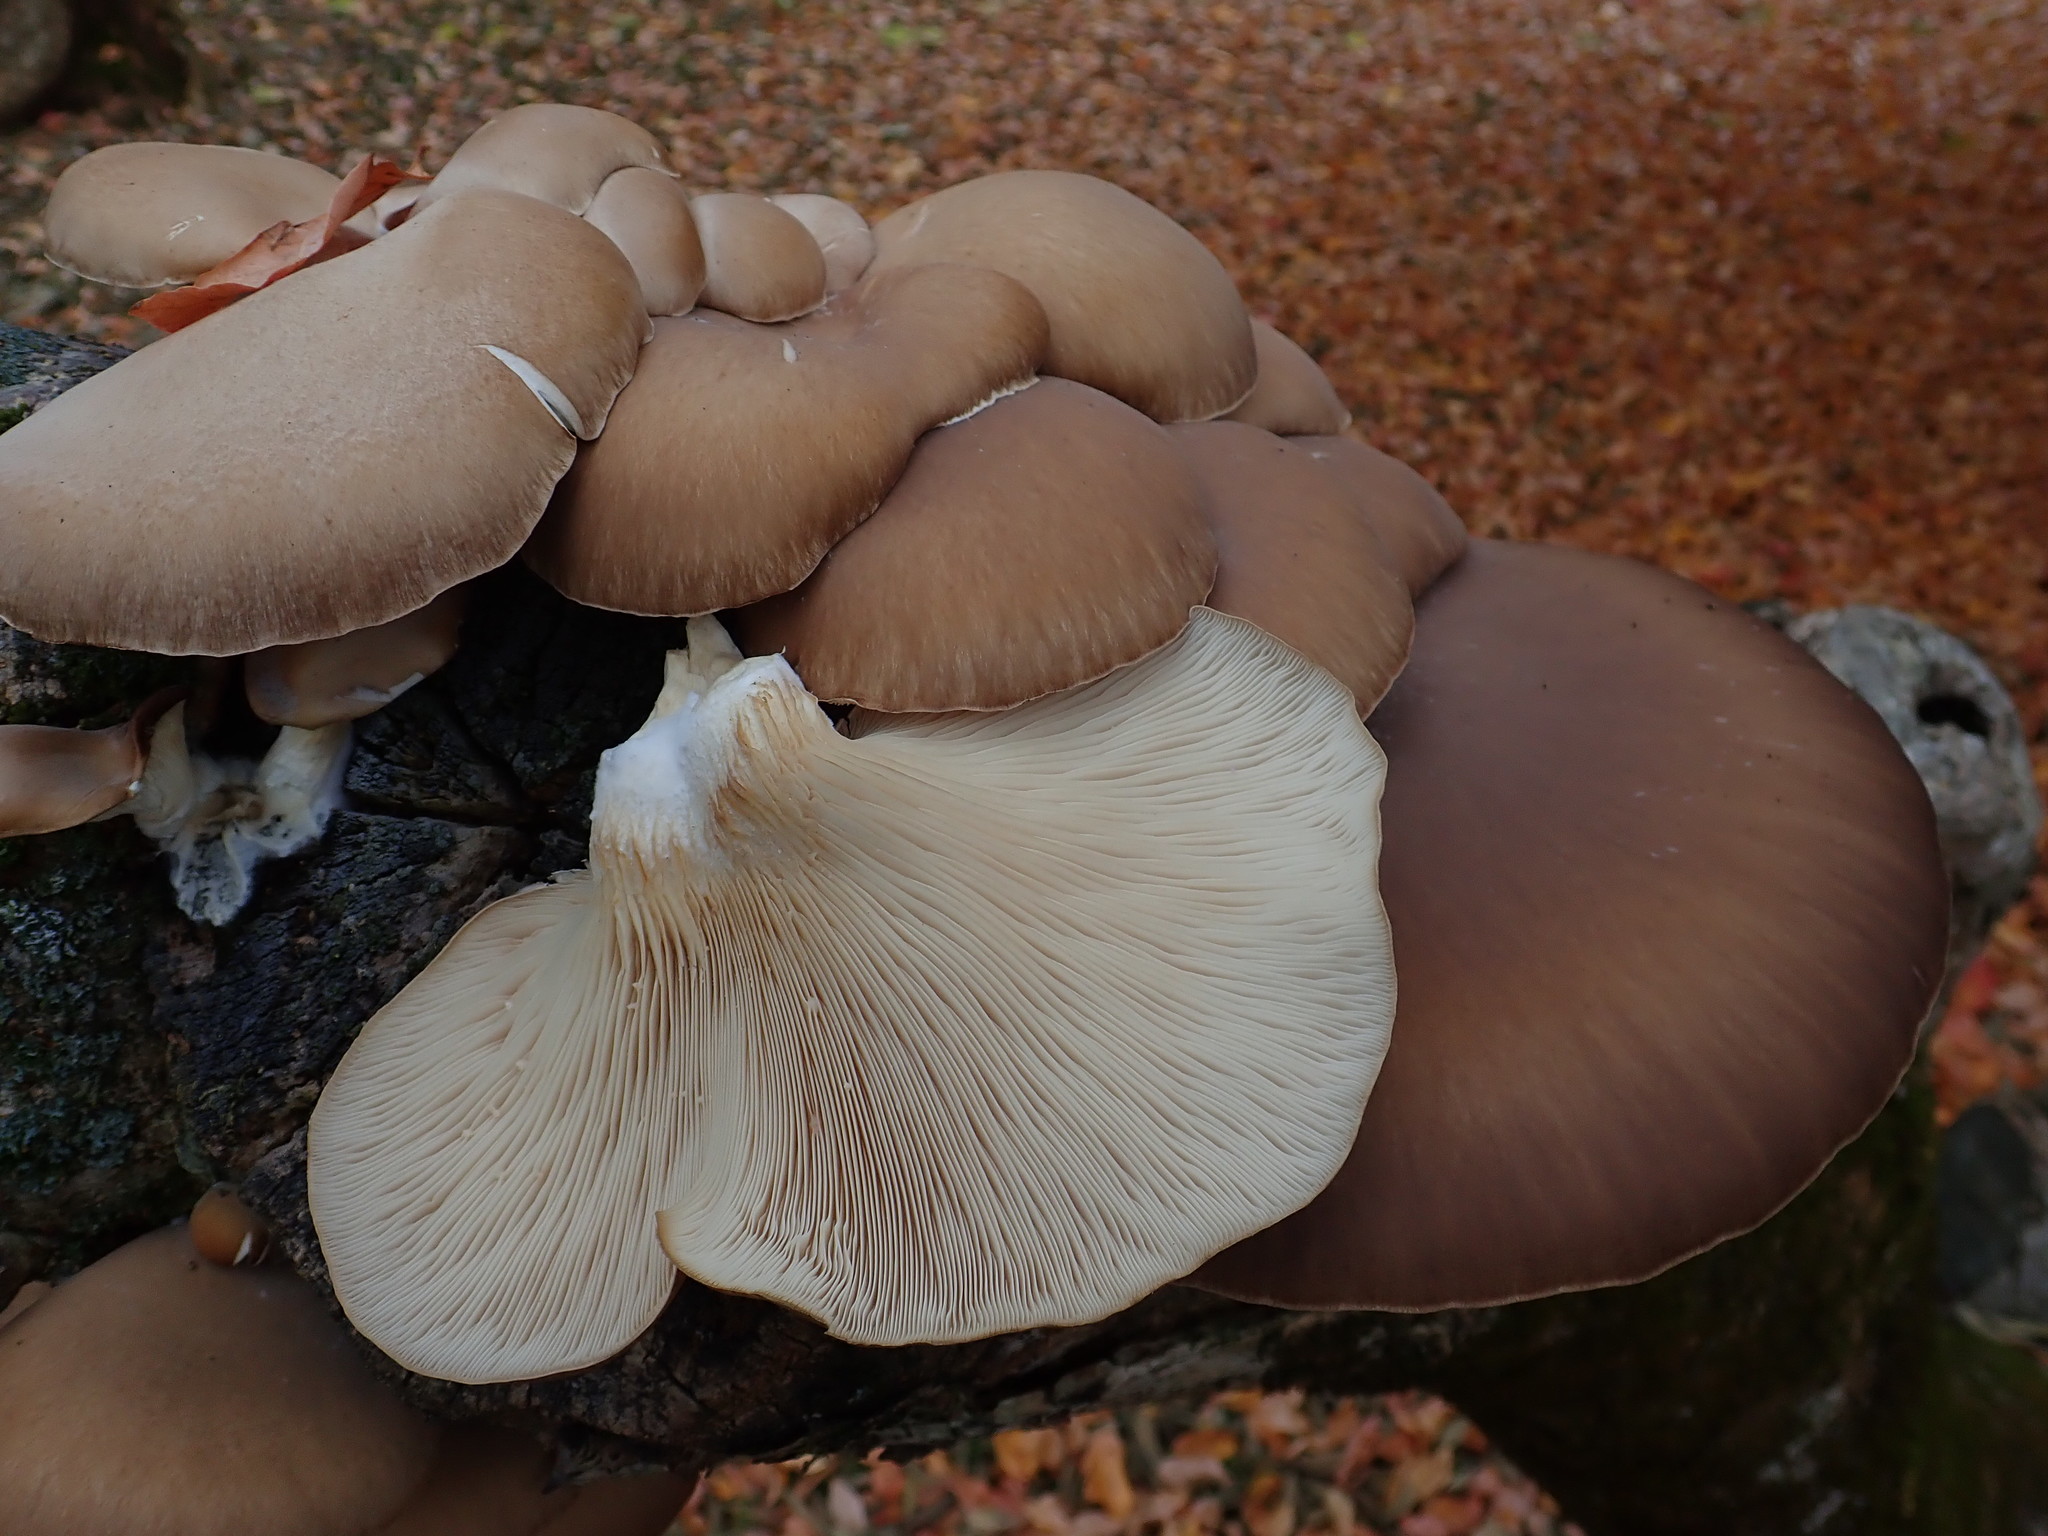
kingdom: Fungi
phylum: Basidiomycota
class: Agaricomycetes
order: Agaricales
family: Pleurotaceae
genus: Pleurotus
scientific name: Pleurotus ostreatus
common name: Oyster mushroom
